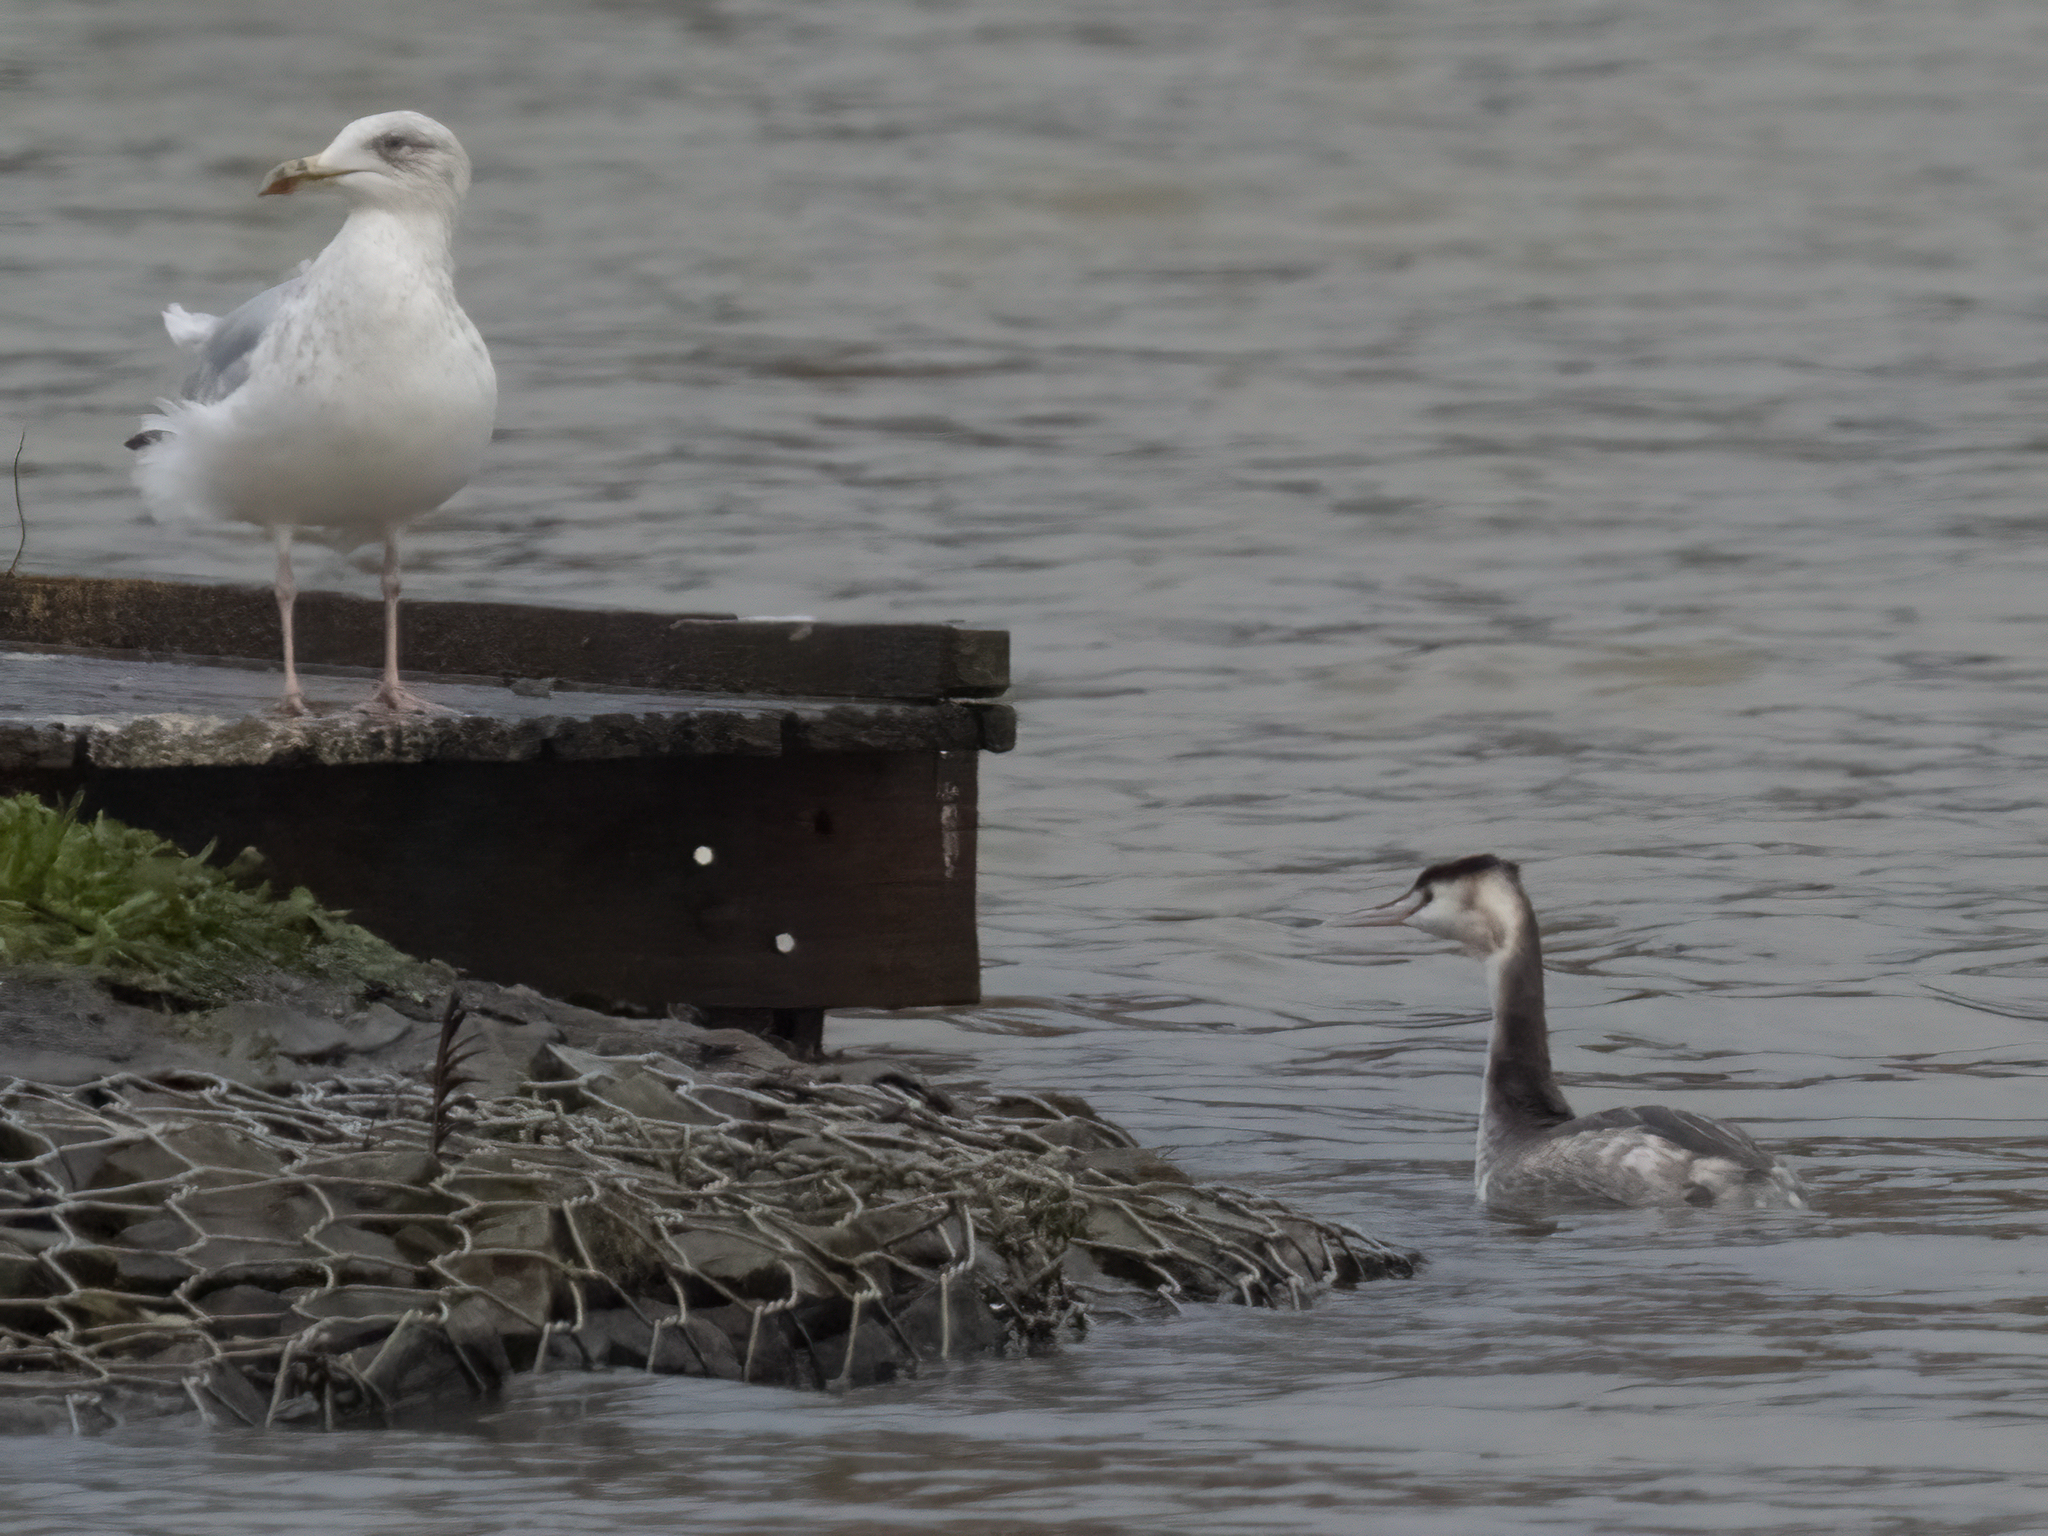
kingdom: Animalia
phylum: Chordata
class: Aves
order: Podicipediformes
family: Podicipedidae
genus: Podiceps
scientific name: Podiceps cristatus
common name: Great crested grebe
